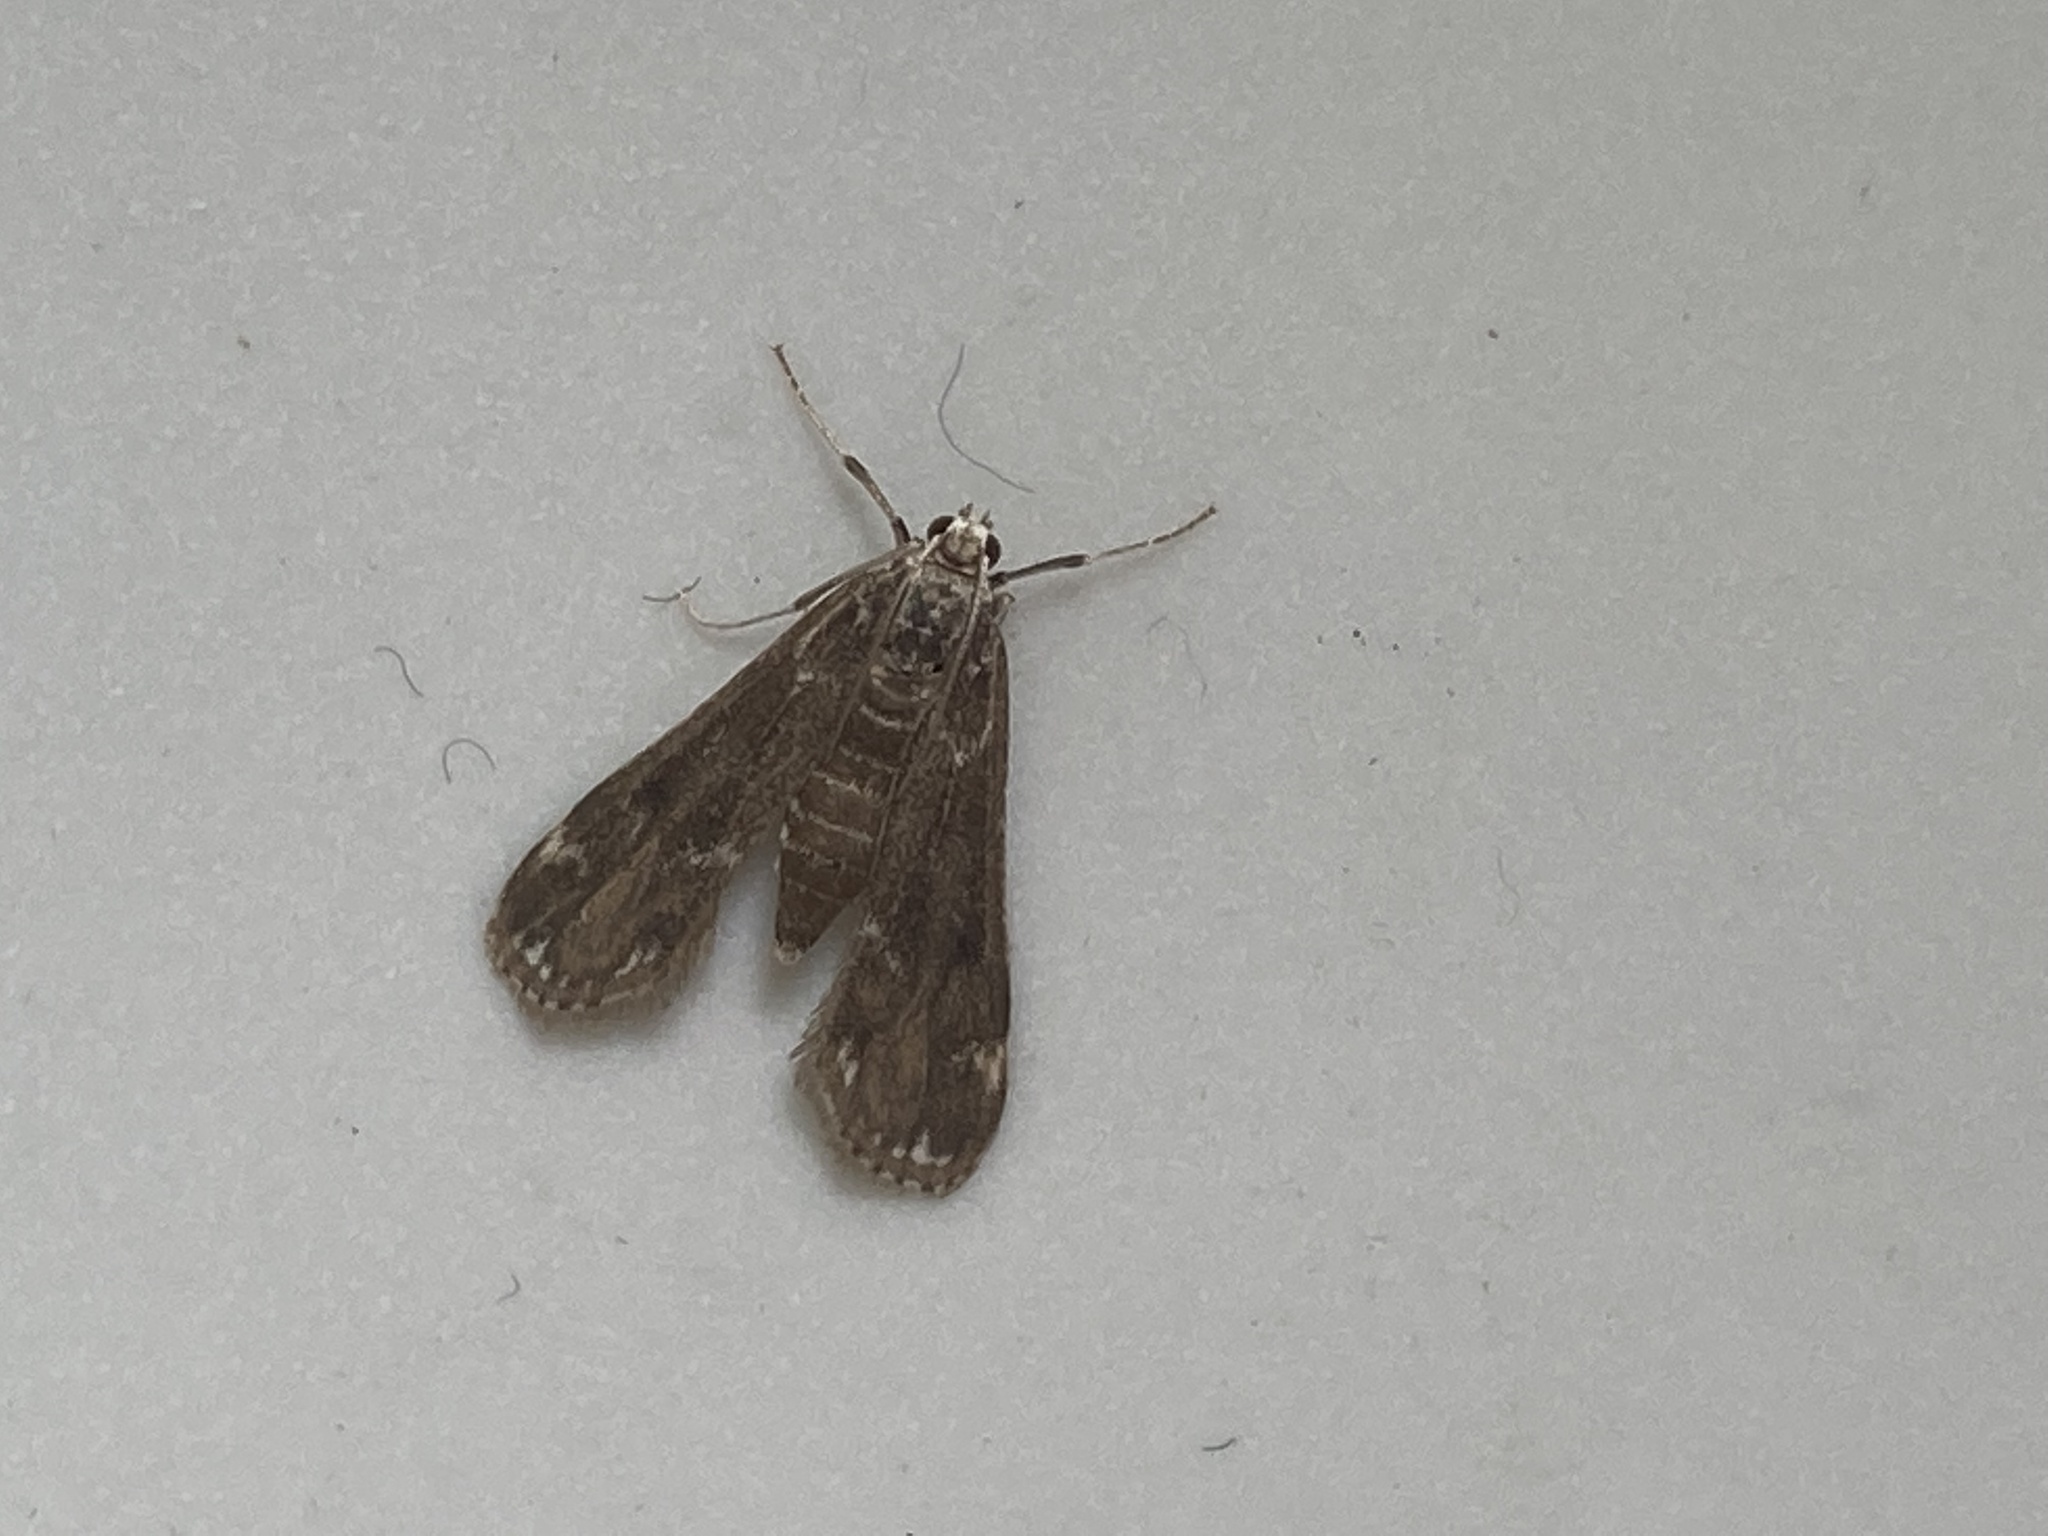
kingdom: Animalia
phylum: Arthropoda
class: Insecta
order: Lepidoptera
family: Crambidae
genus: Hygraula
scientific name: Hygraula nitens
